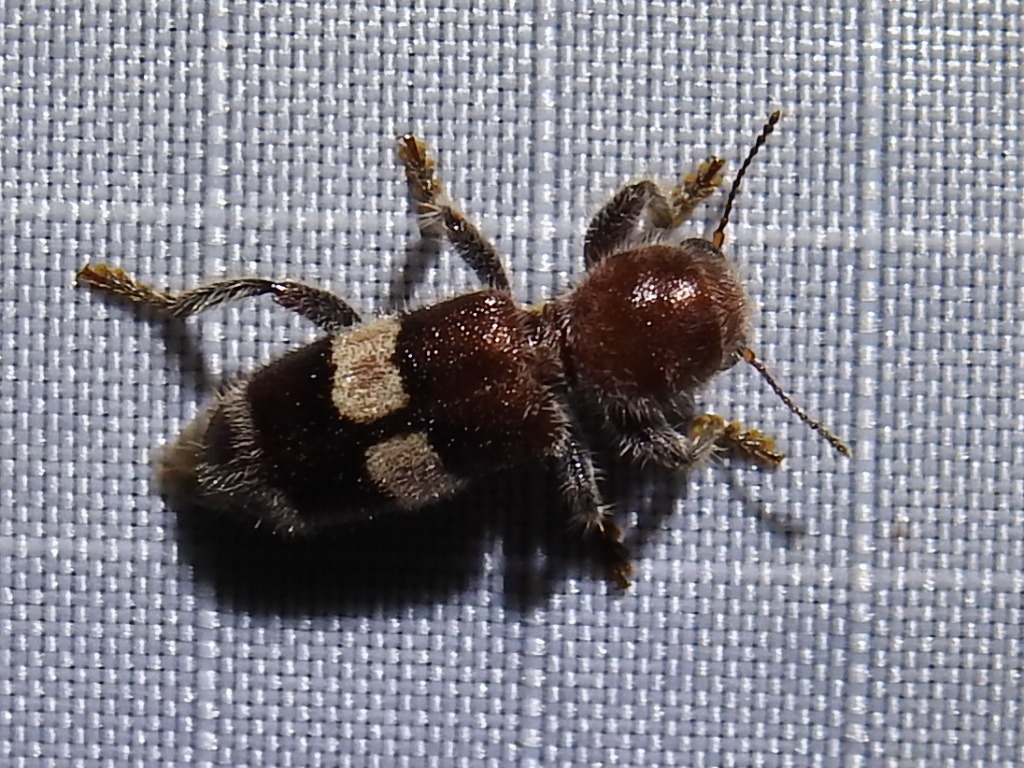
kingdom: Animalia
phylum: Arthropoda
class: Insecta
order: Coleoptera
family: Cleridae
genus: Enoclerus
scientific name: Enoclerus quadrisignatus
